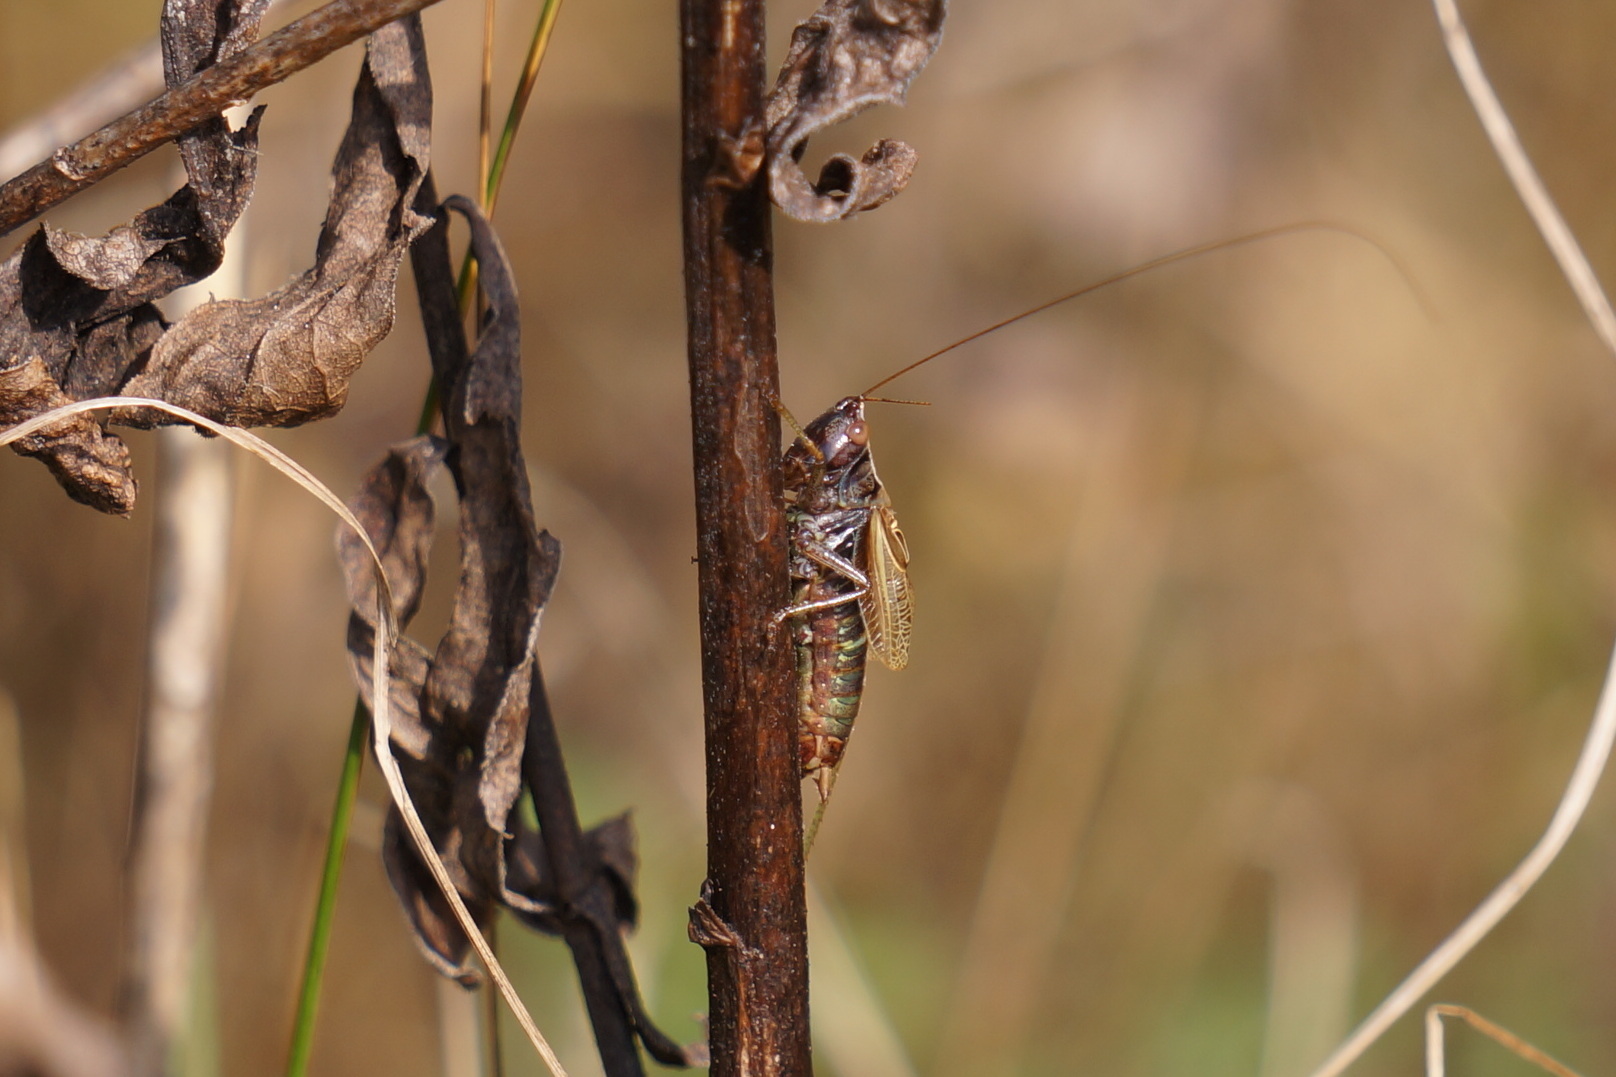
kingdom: Animalia
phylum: Arthropoda
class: Insecta
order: Orthoptera
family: Tettigoniidae
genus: Conocephalus
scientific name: Conocephalus nemoralis
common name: Woodland meadow katydid
